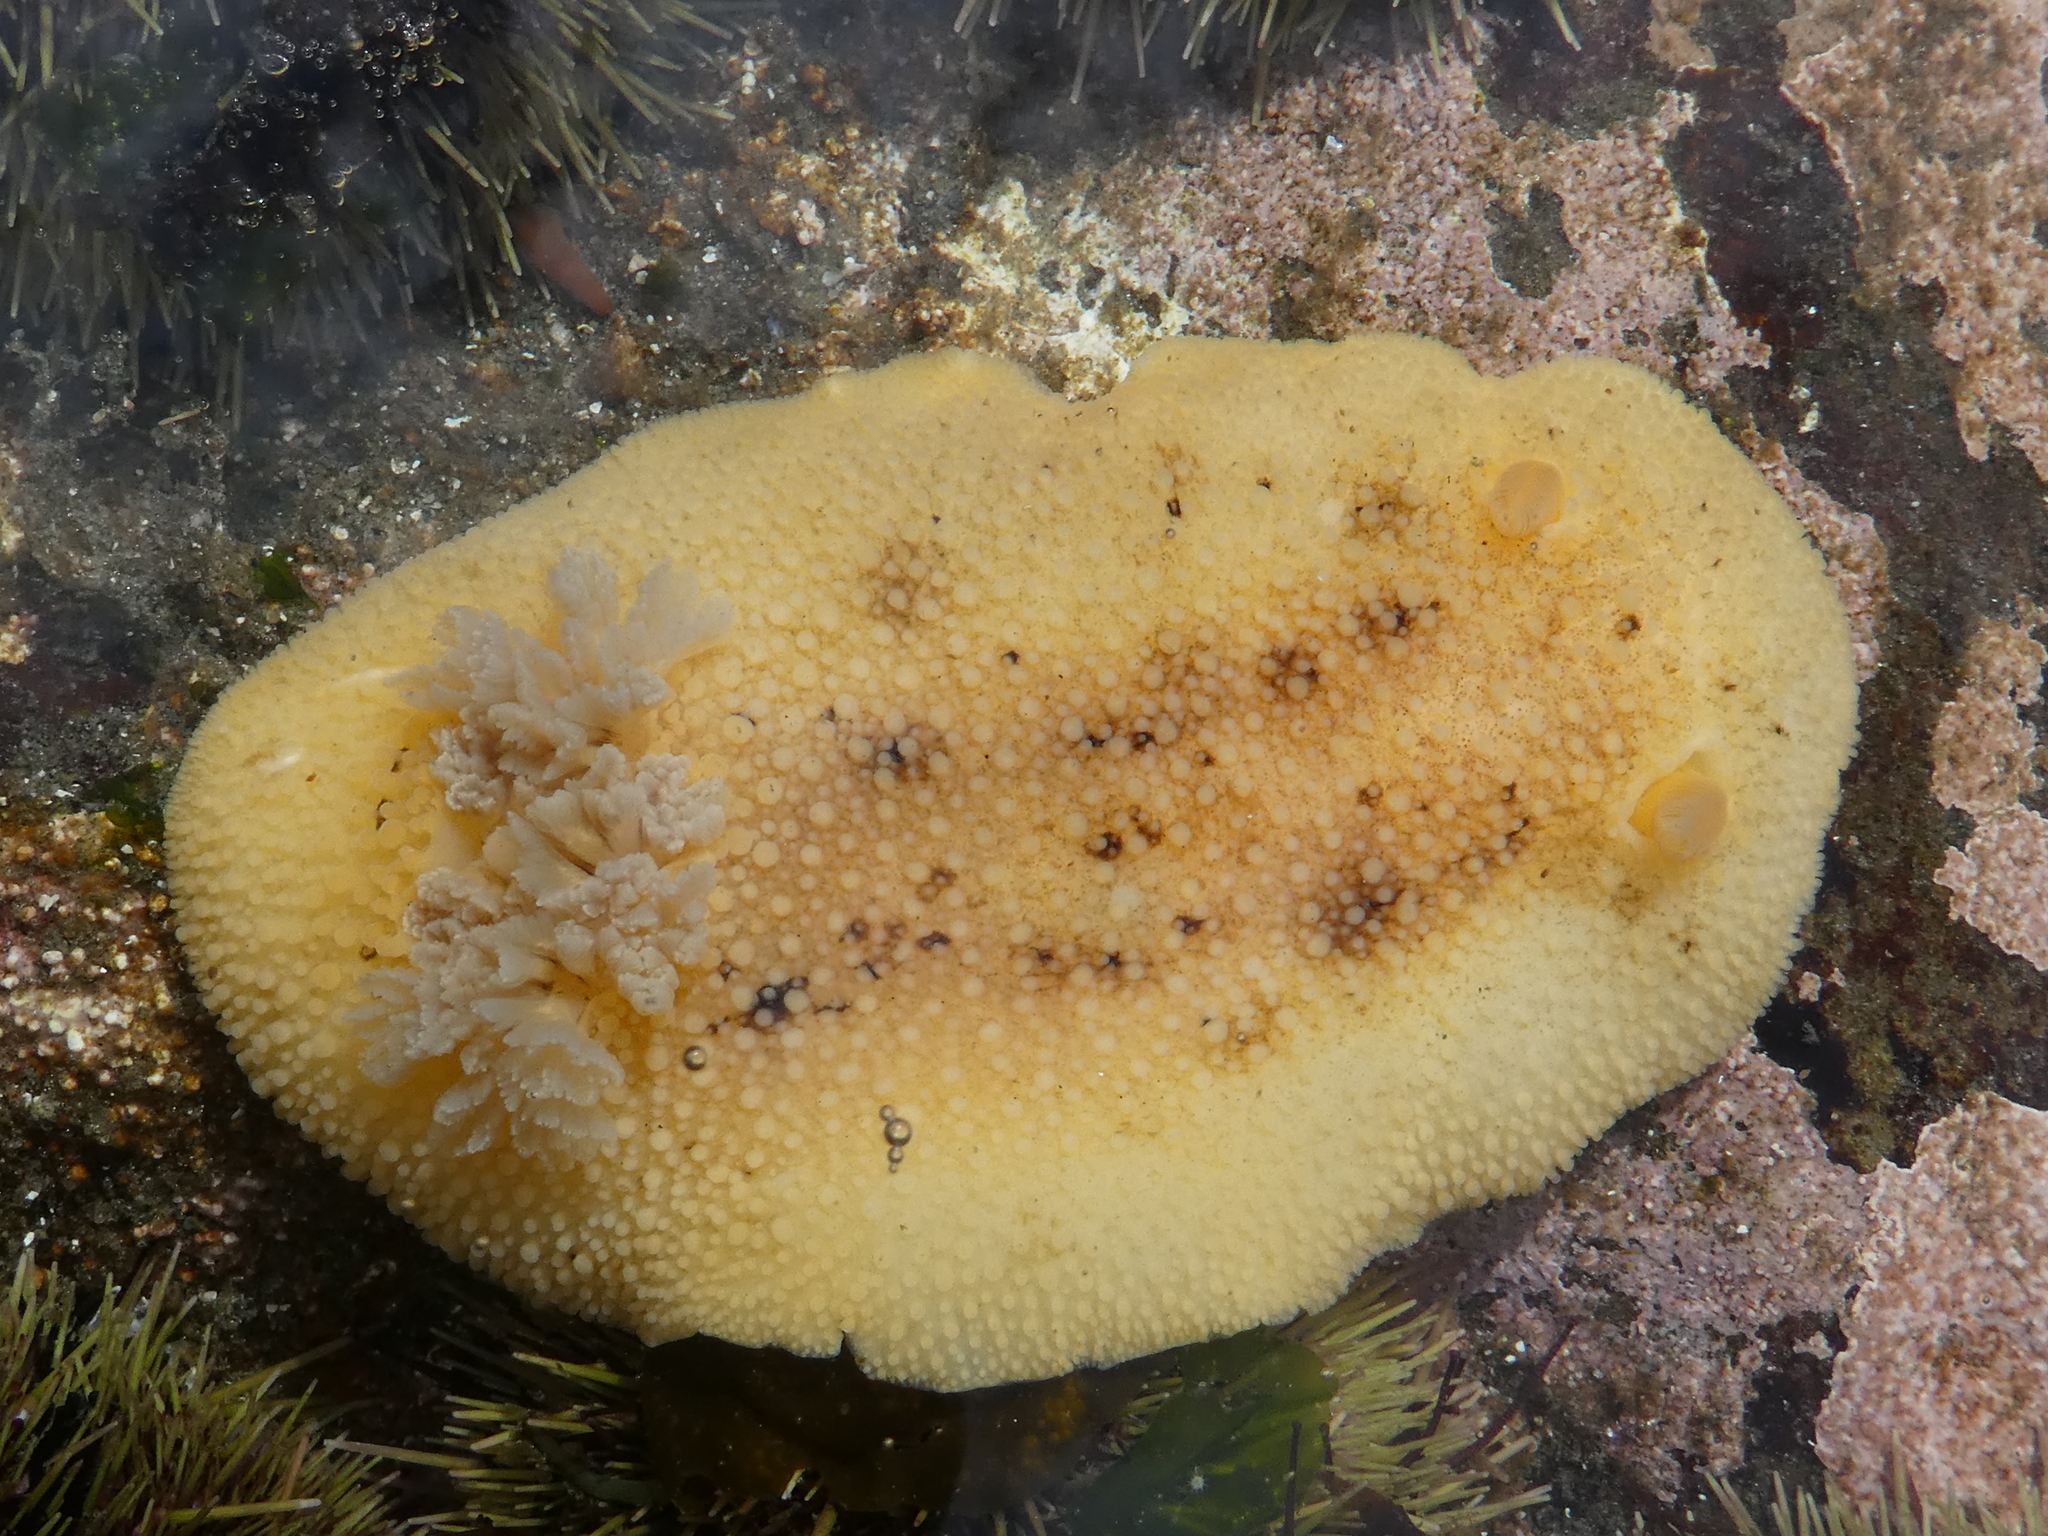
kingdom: Animalia
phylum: Mollusca
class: Gastropoda
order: Nudibranchia
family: Discodorididae
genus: Peltodoris
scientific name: Peltodoris nobilis
